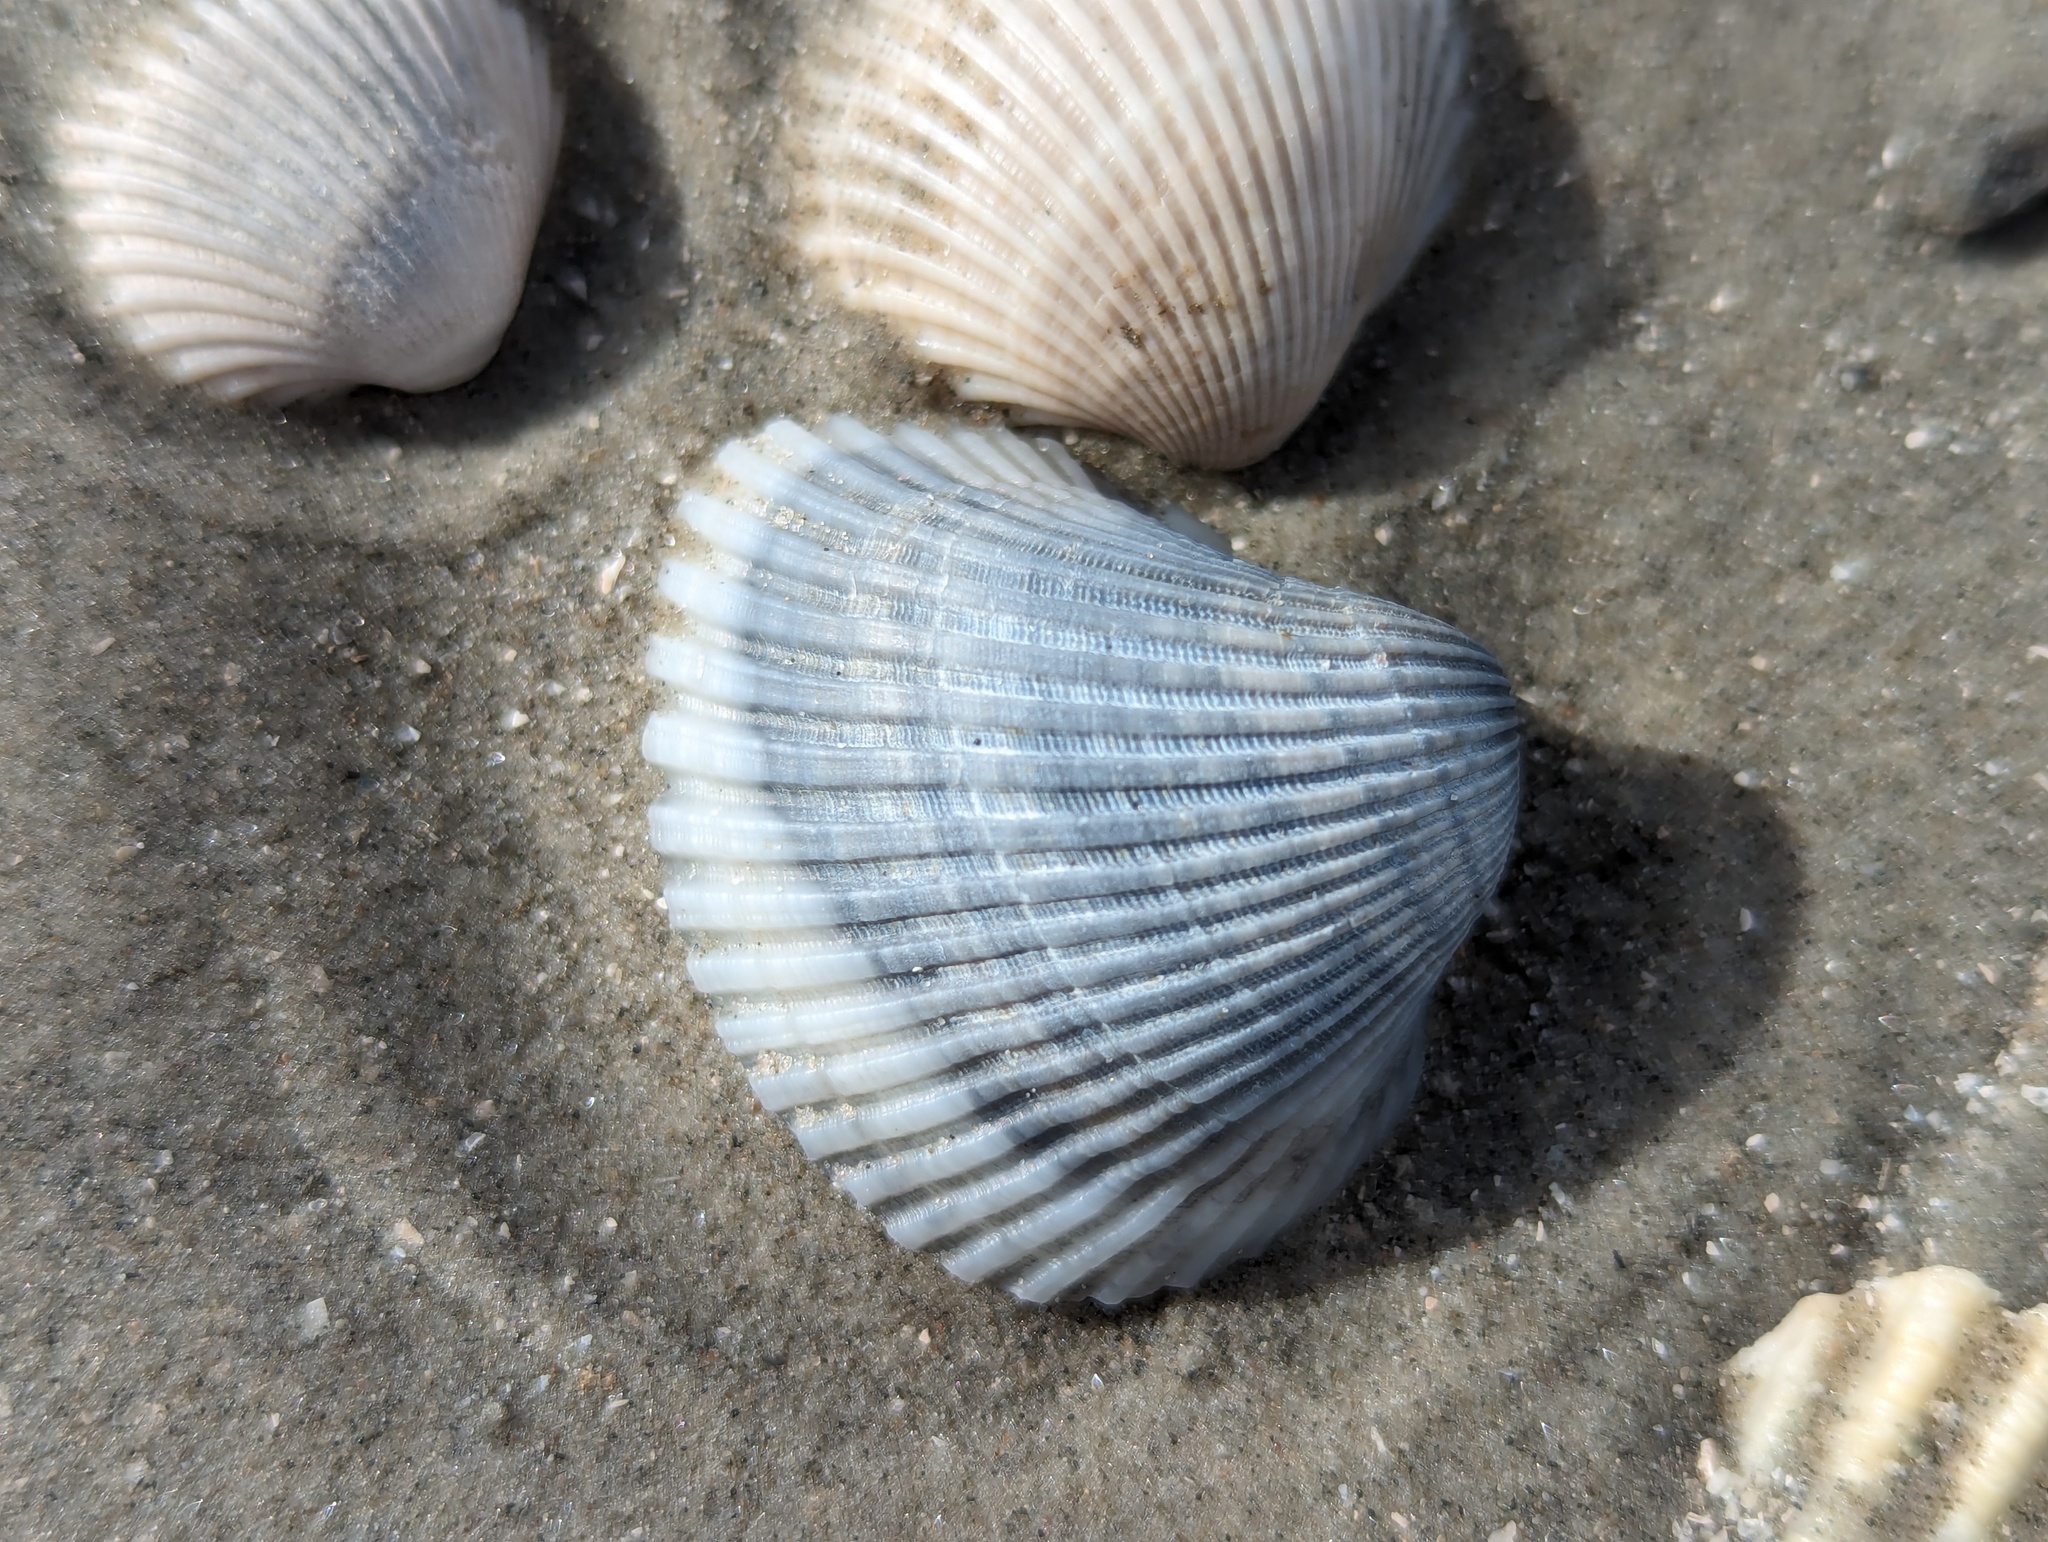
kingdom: Animalia
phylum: Mollusca
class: Bivalvia
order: Arcida
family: Noetiidae
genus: Noetia
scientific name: Noetia ponderosa
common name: Ponderous ark
